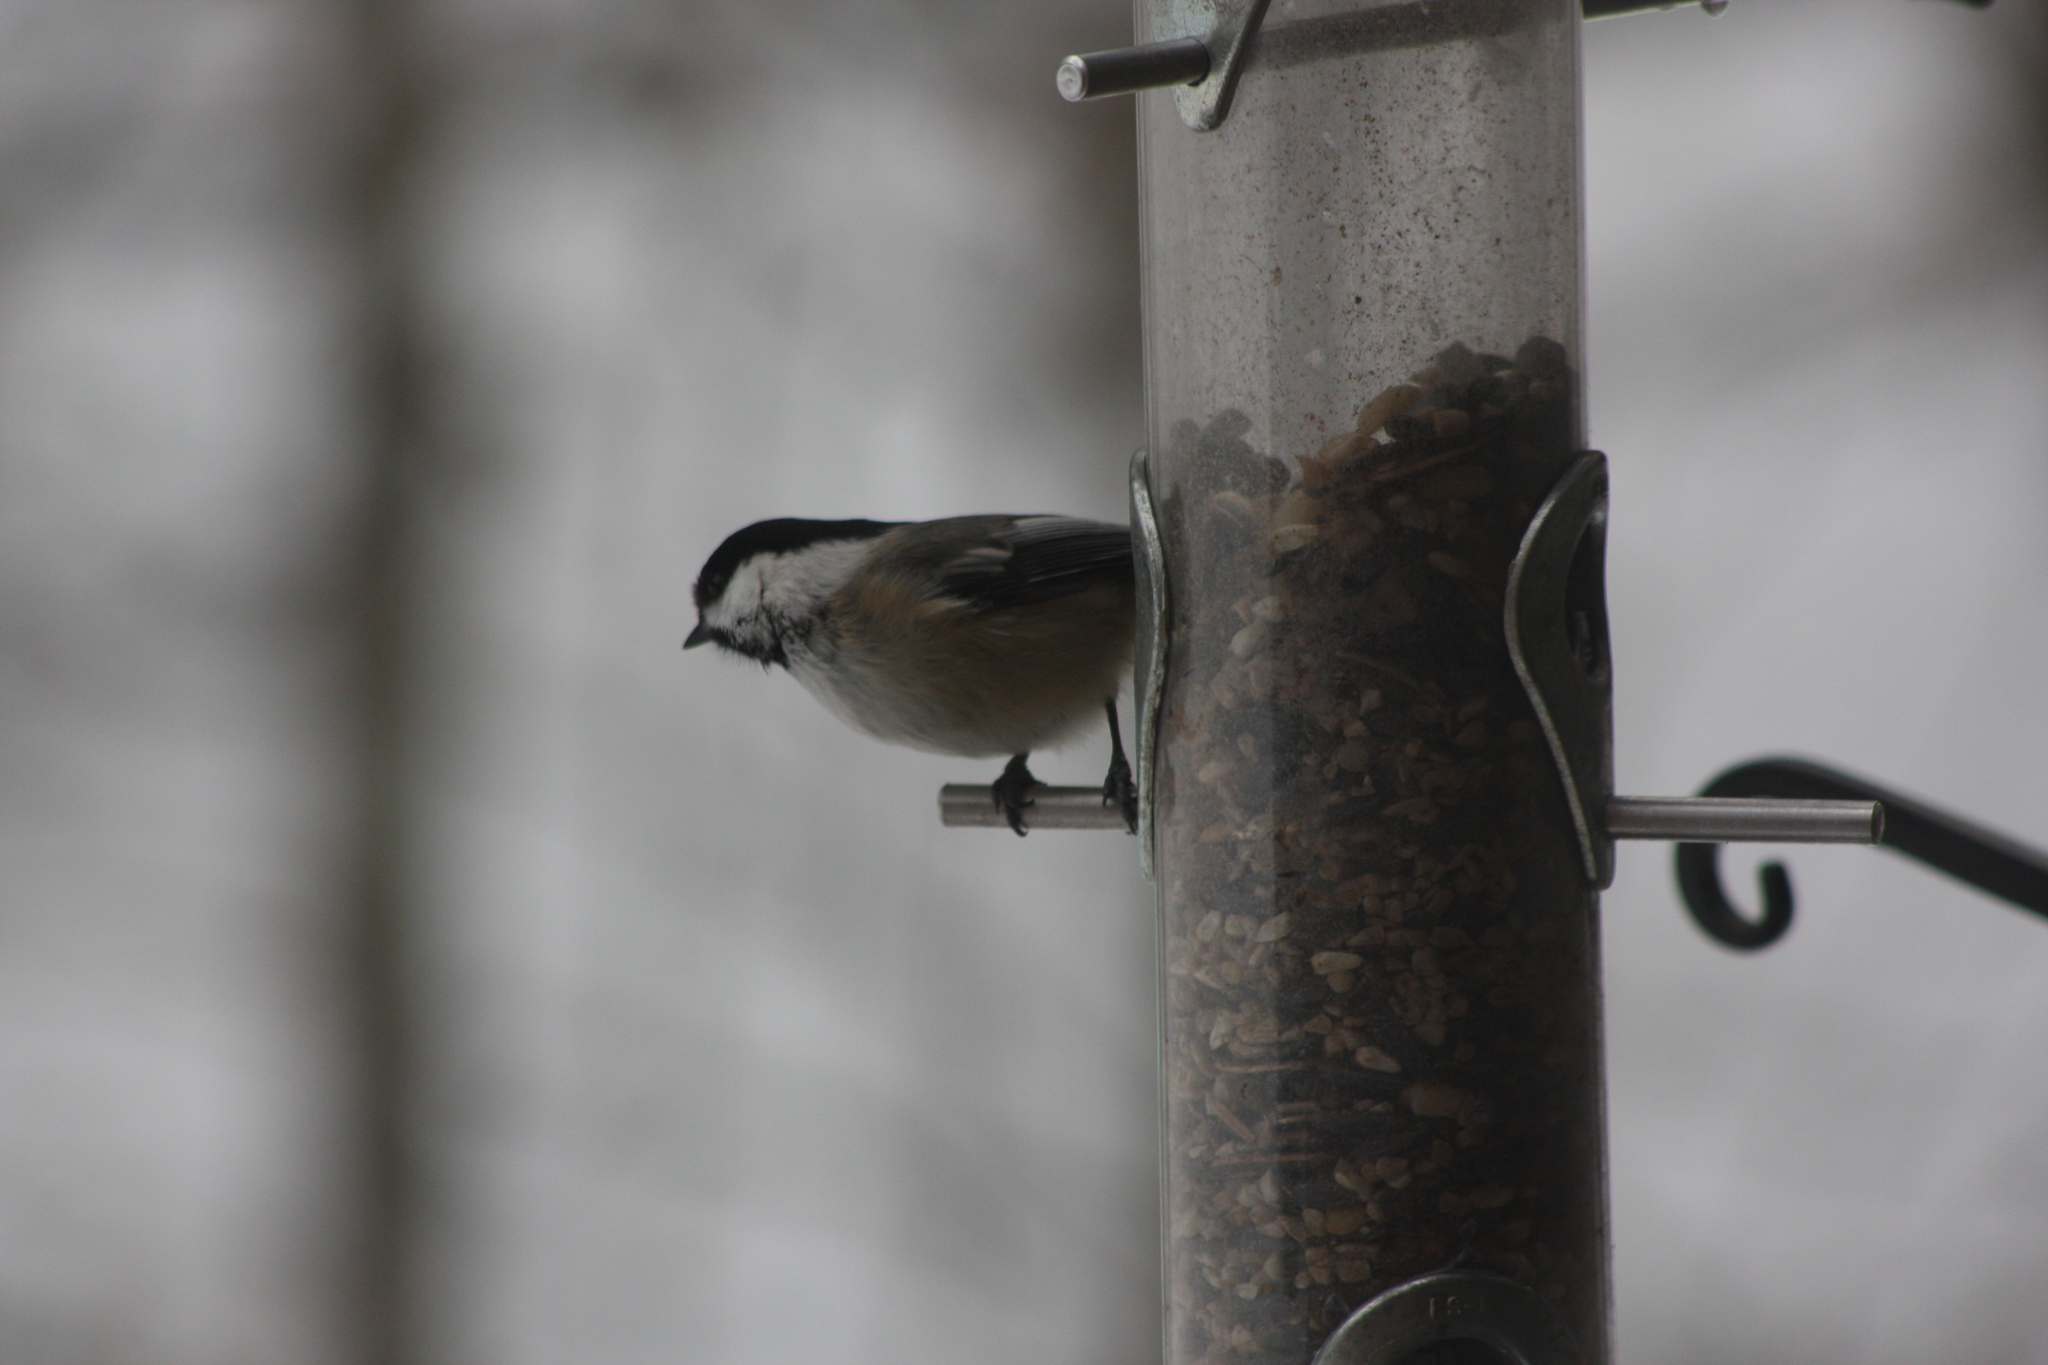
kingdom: Animalia
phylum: Chordata
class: Aves
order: Passeriformes
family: Paridae
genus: Poecile
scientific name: Poecile atricapillus
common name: Black-capped chickadee
